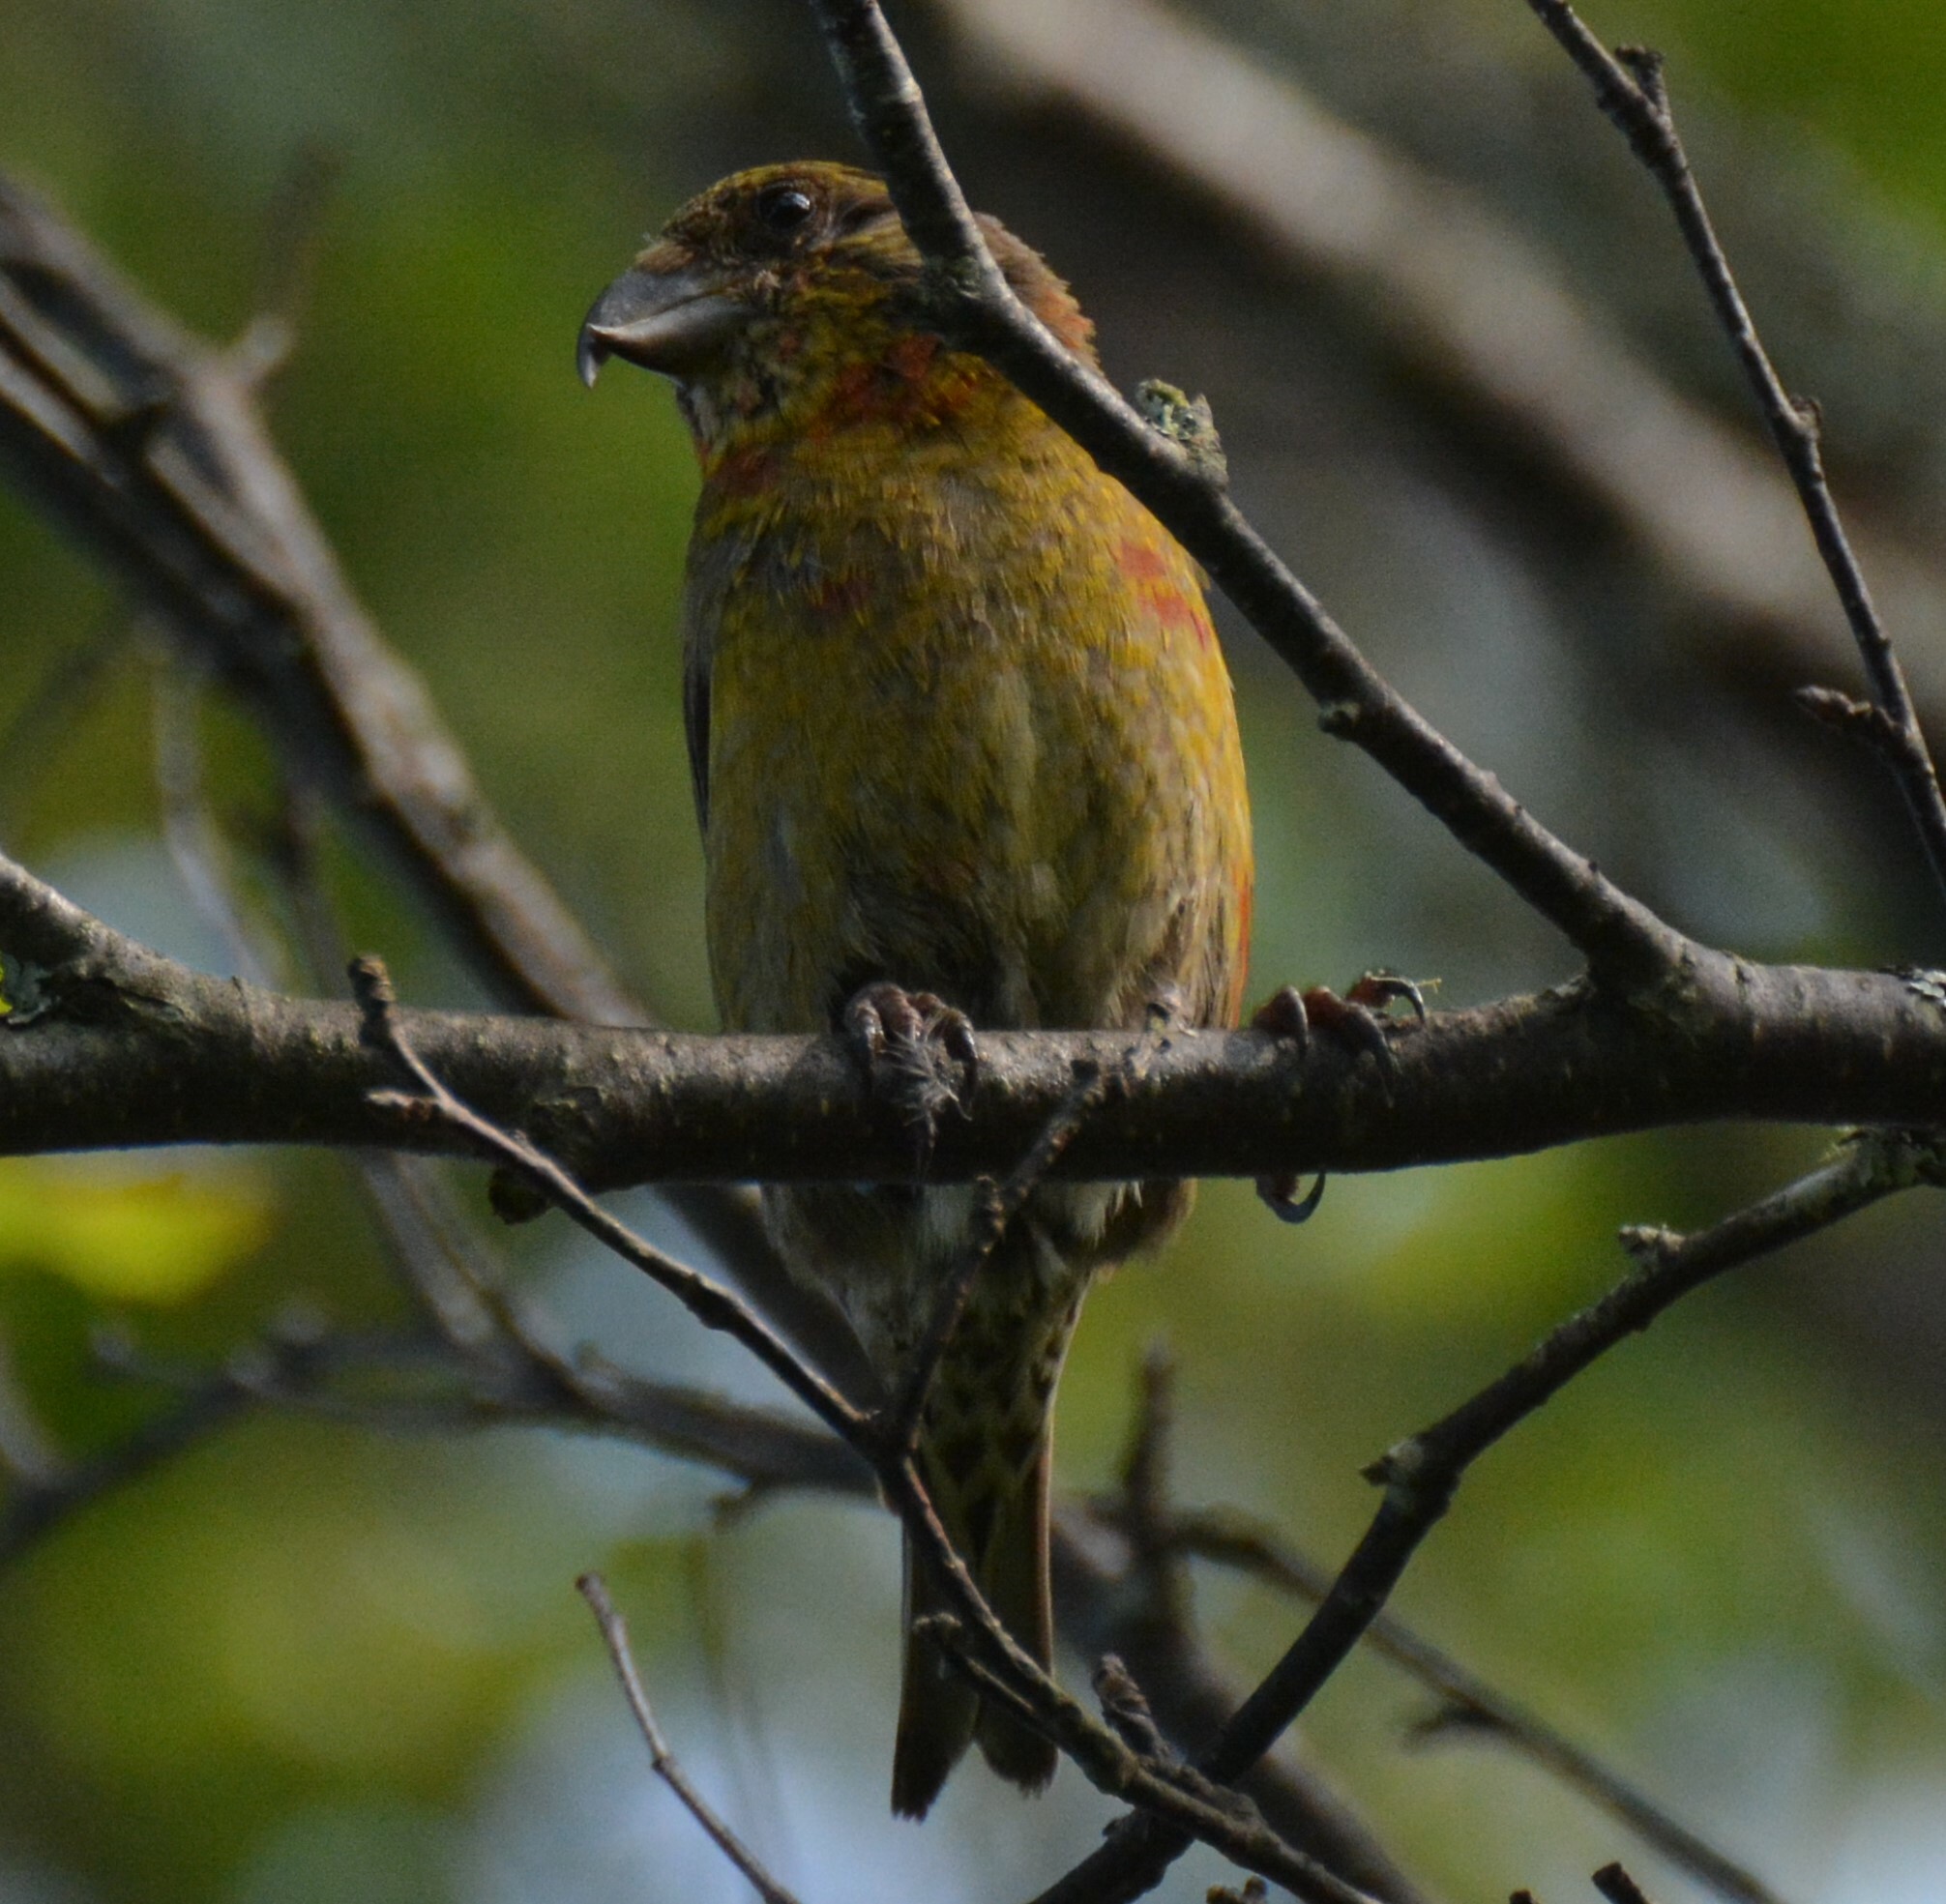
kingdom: Animalia
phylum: Chordata
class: Aves
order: Passeriformes
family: Fringillidae
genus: Loxia
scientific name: Loxia curvirostra
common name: Red crossbill
